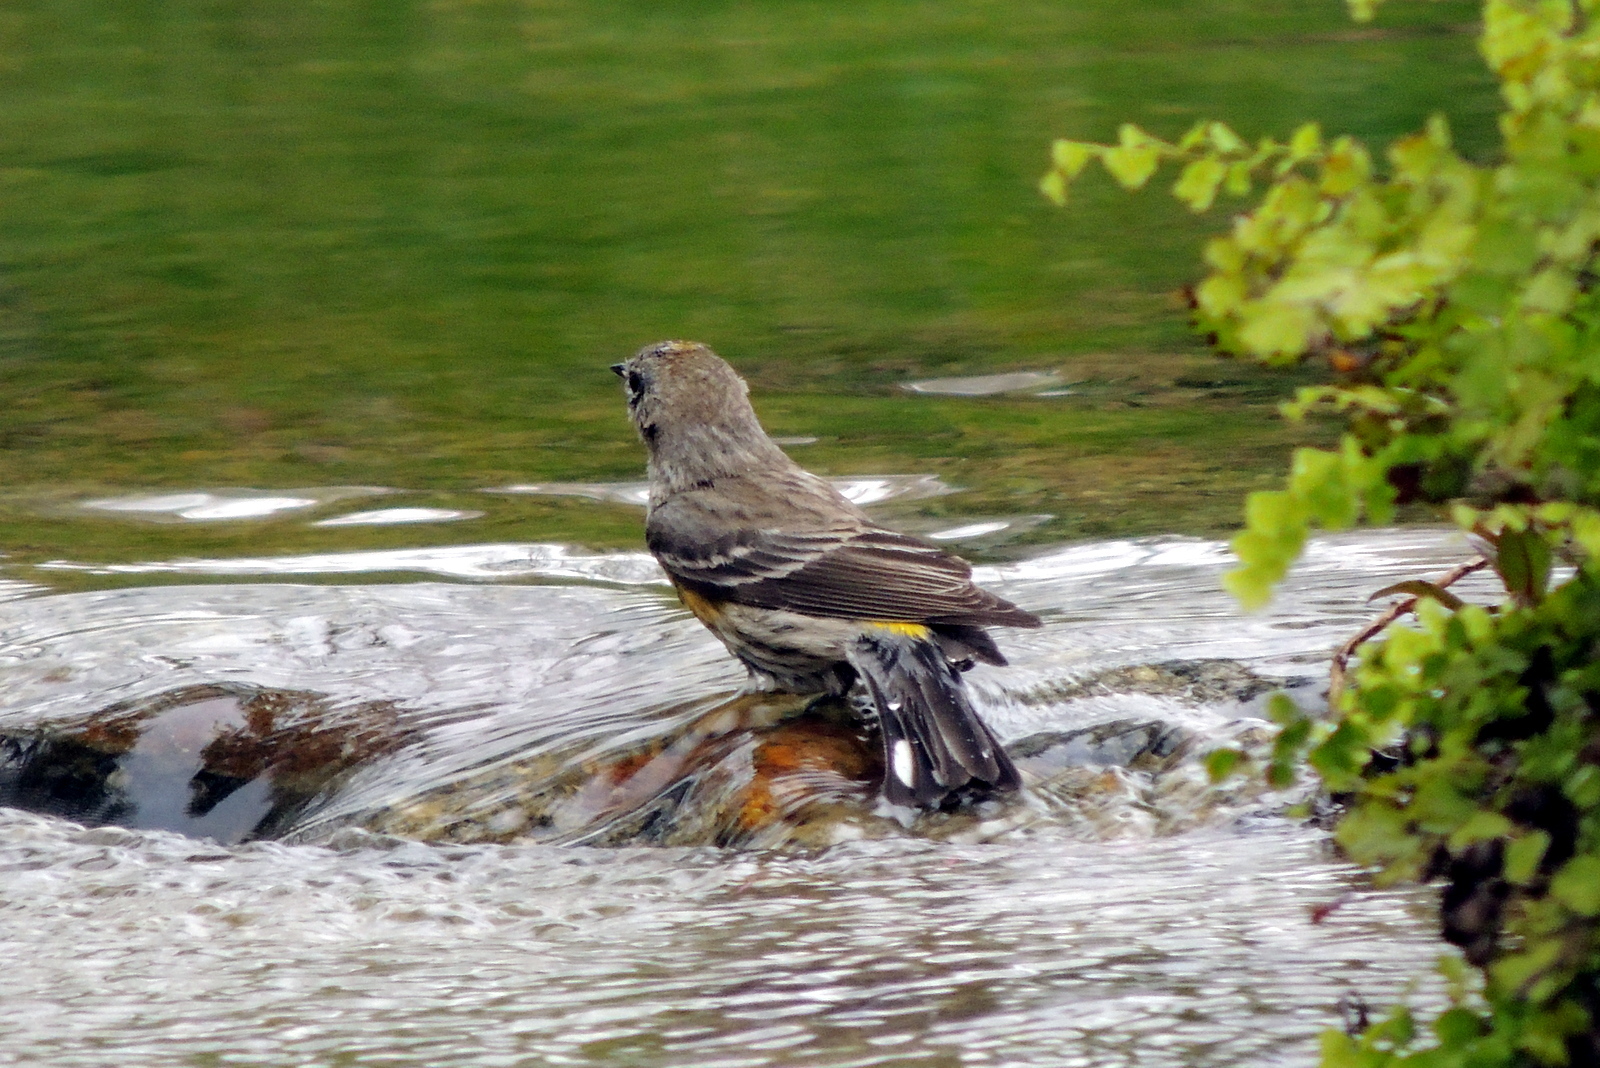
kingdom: Animalia
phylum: Chordata
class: Aves
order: Passeriformes
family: Parulidae
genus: Setophaga
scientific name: Setophaga coronata
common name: Myrtle warbler
